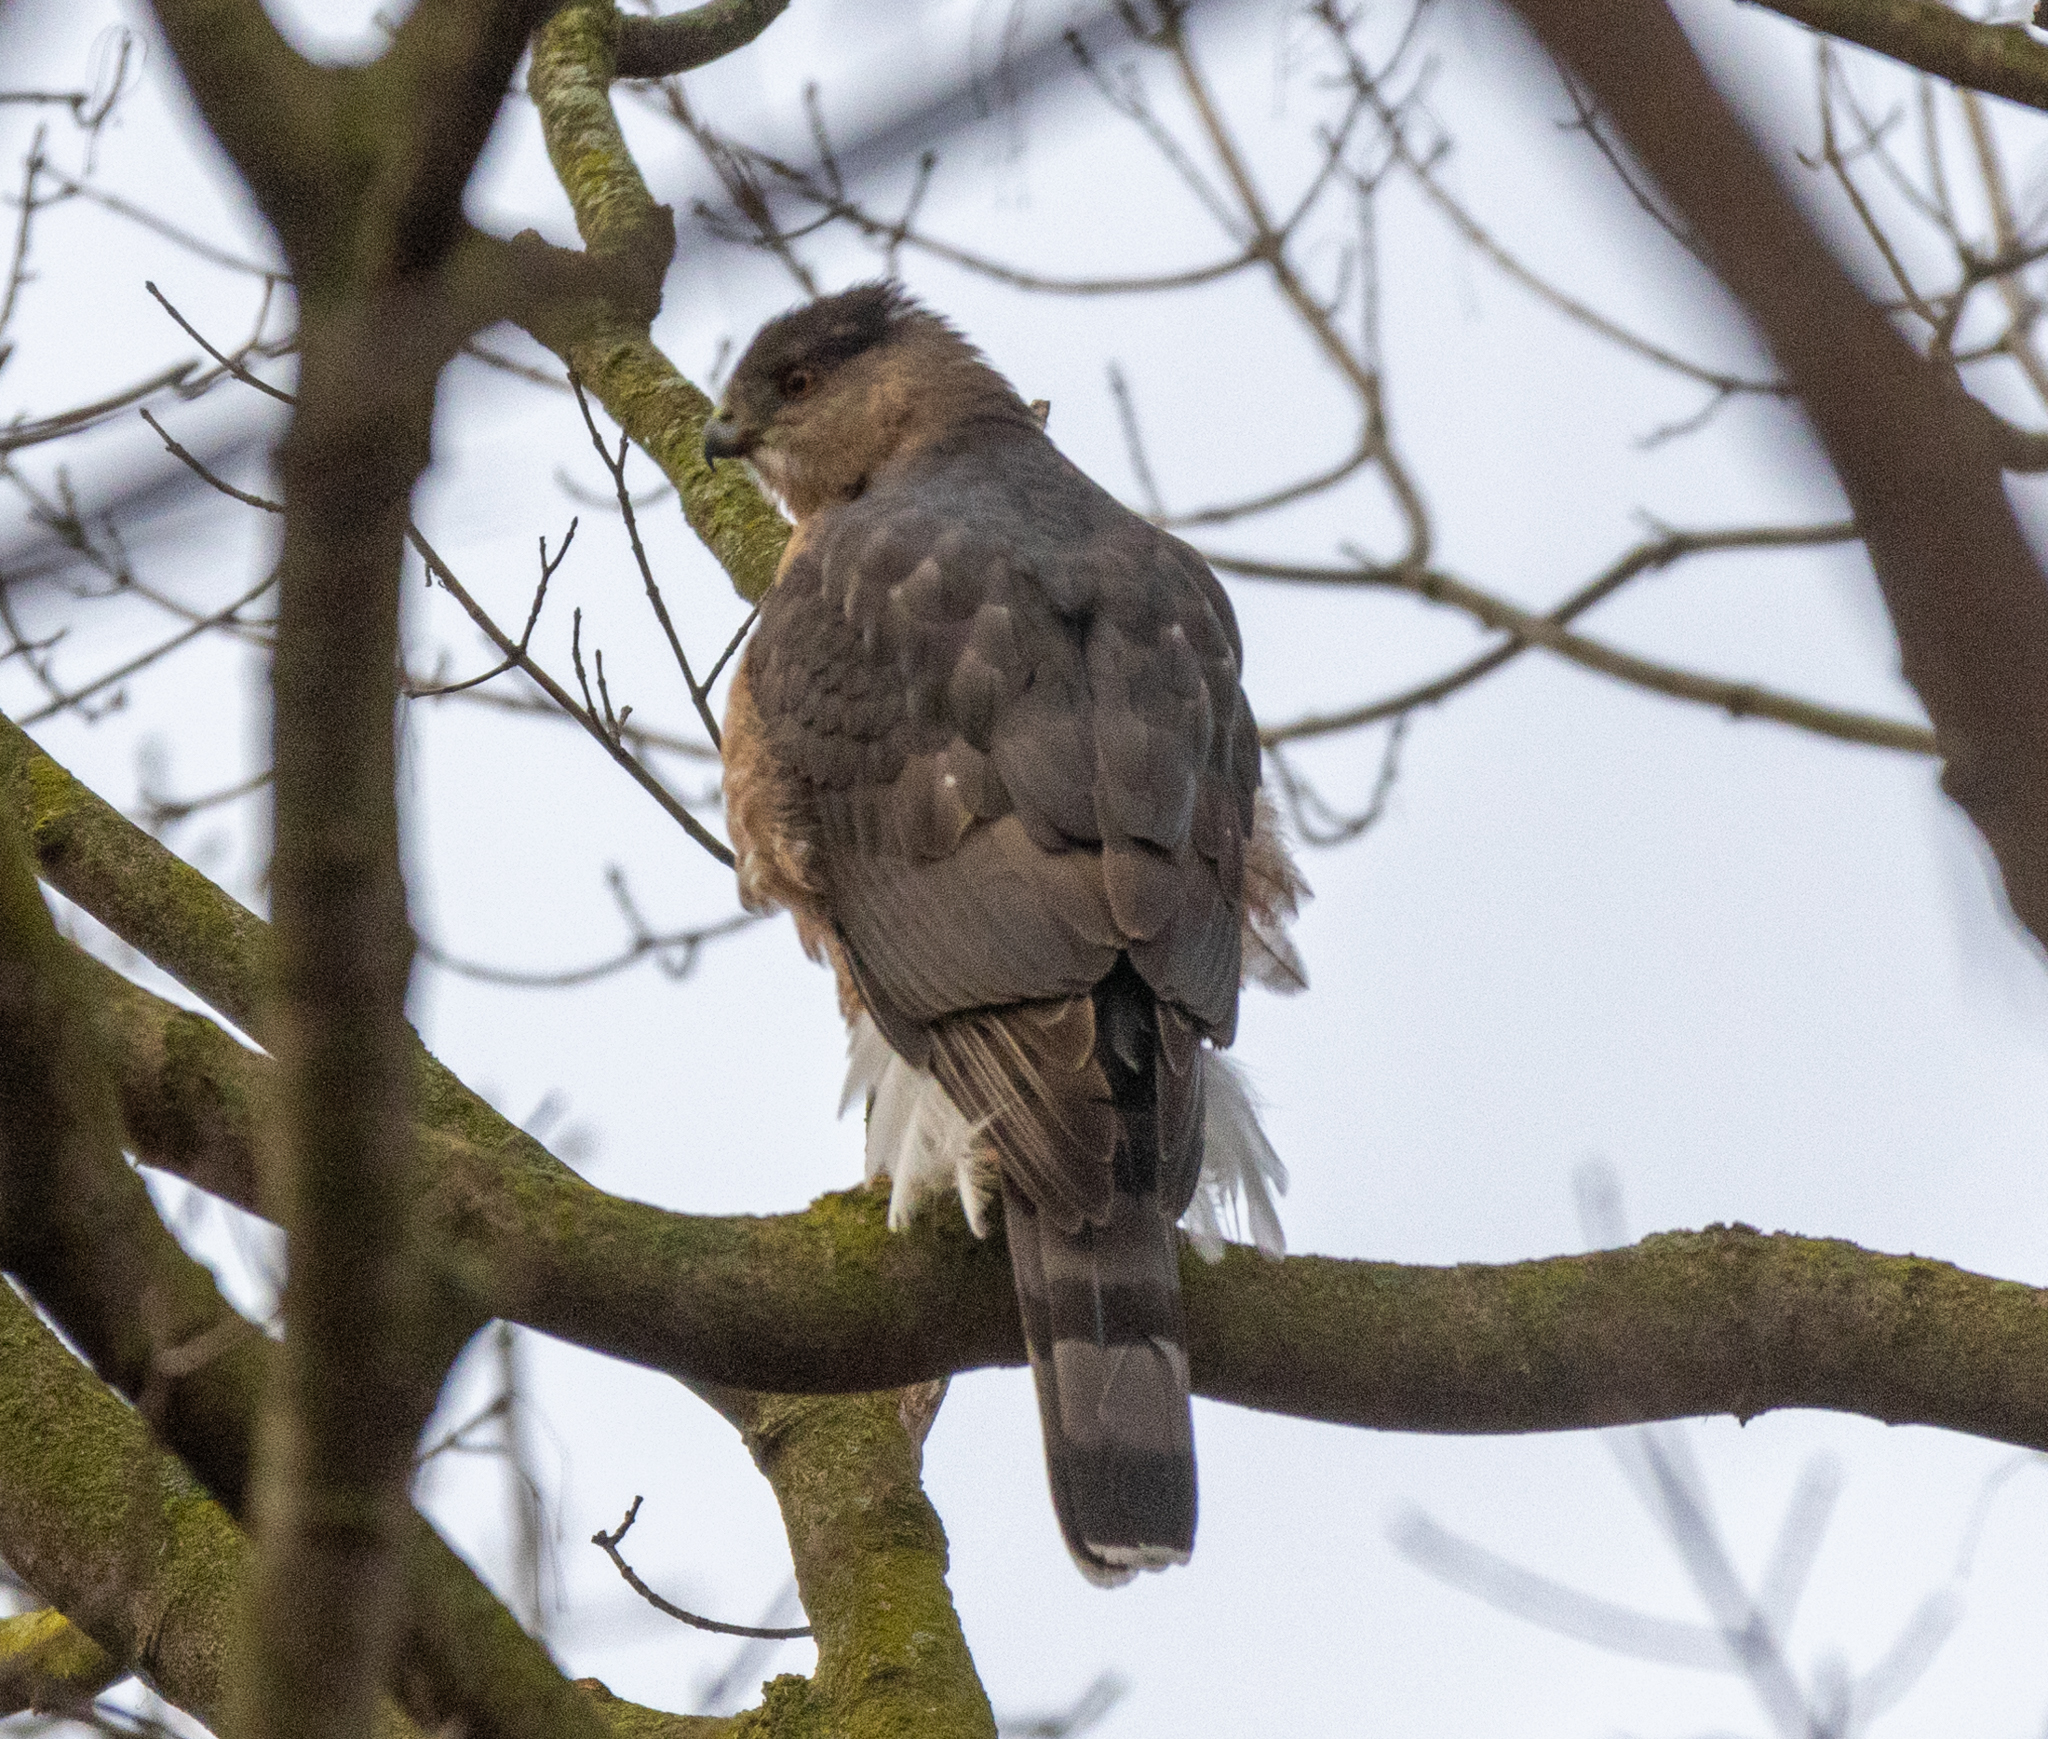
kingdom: Animalia
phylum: Chordata
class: Aves
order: Accipitriformes
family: Accipitridae
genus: Accipiter
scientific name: Accipiter cooperii
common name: Cooper's hawk
